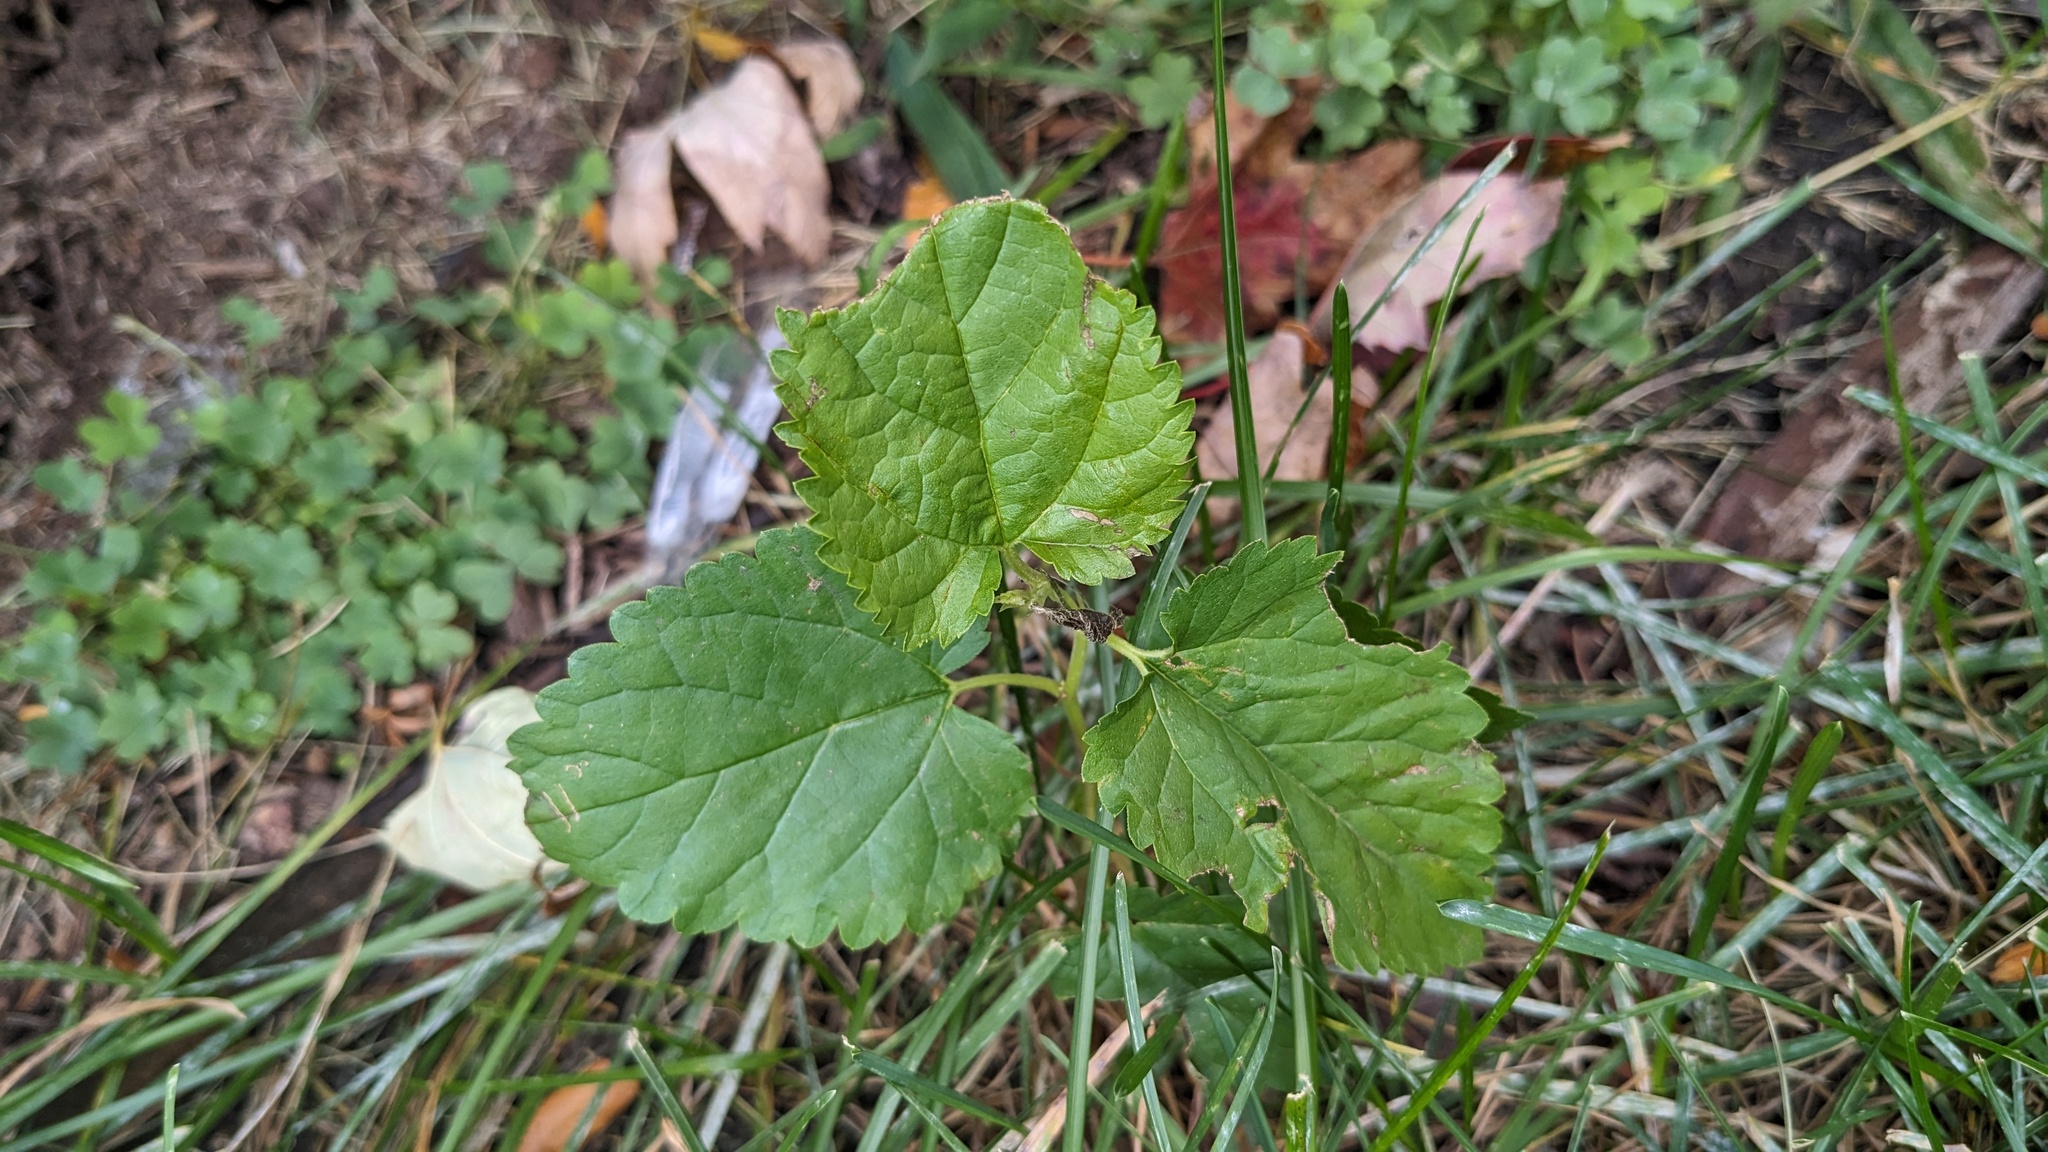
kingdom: Plantae
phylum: Tracheophyta
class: Magnoliopsida
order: Rosales
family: Moraceae
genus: Morus
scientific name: Morus alba
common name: White mulberry
